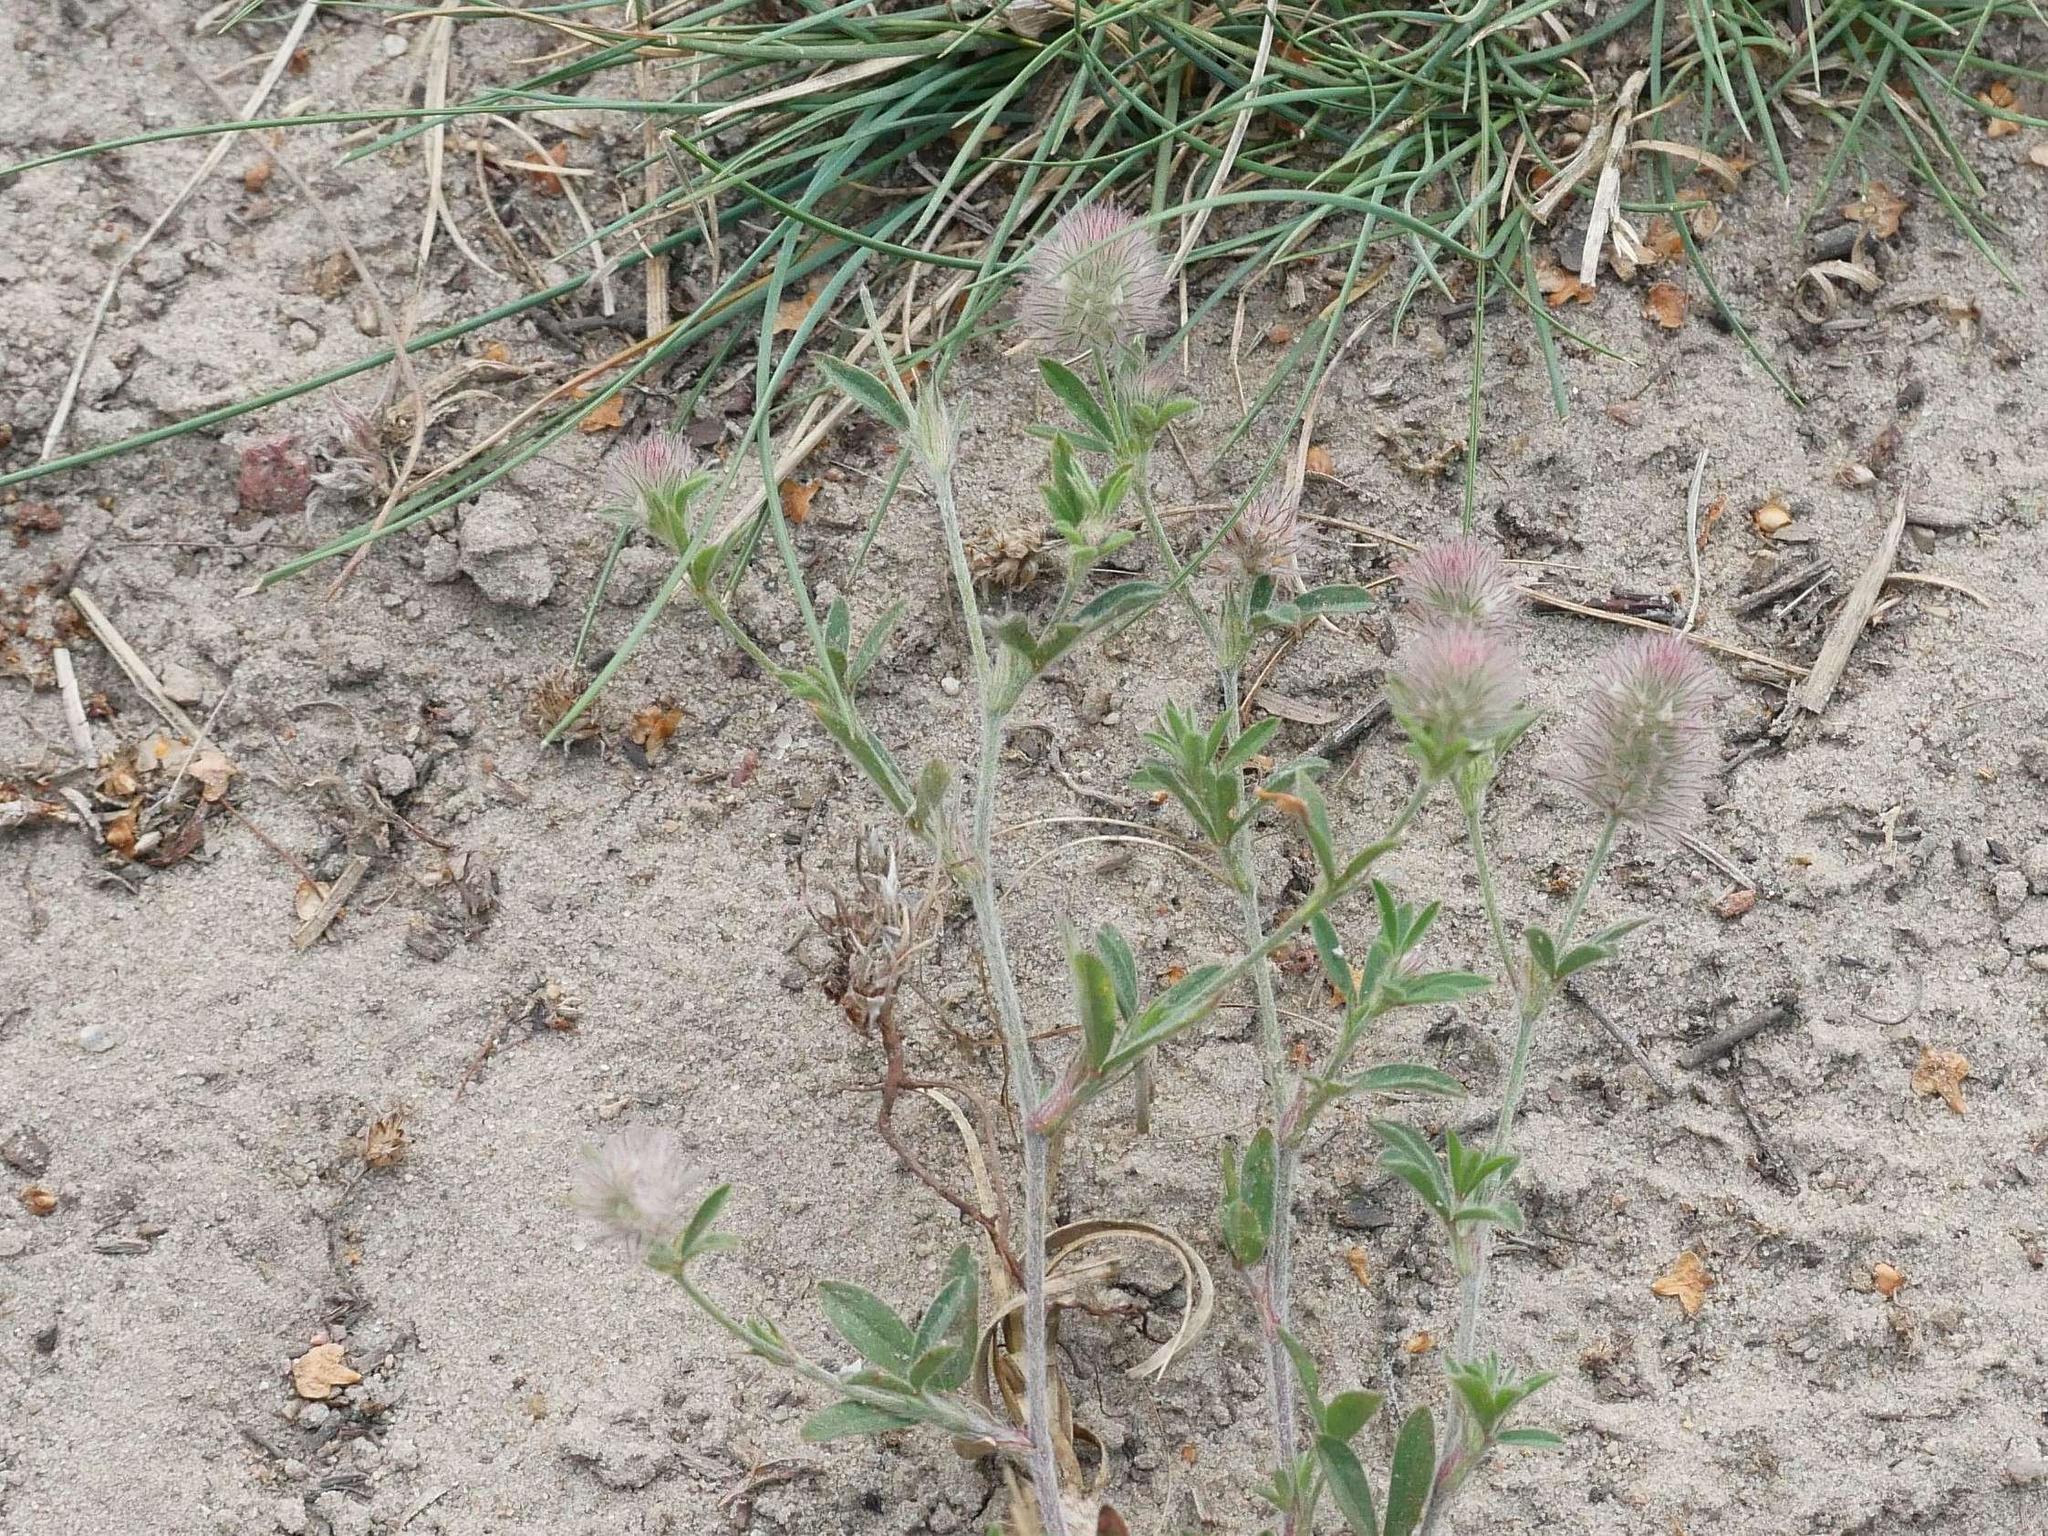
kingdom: Plantae
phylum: Tracheophyta
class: Magnoliopsida
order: Fabales
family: Fabaceae
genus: Trifolium
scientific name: Trifolium arvense
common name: Hare's-foot clover
